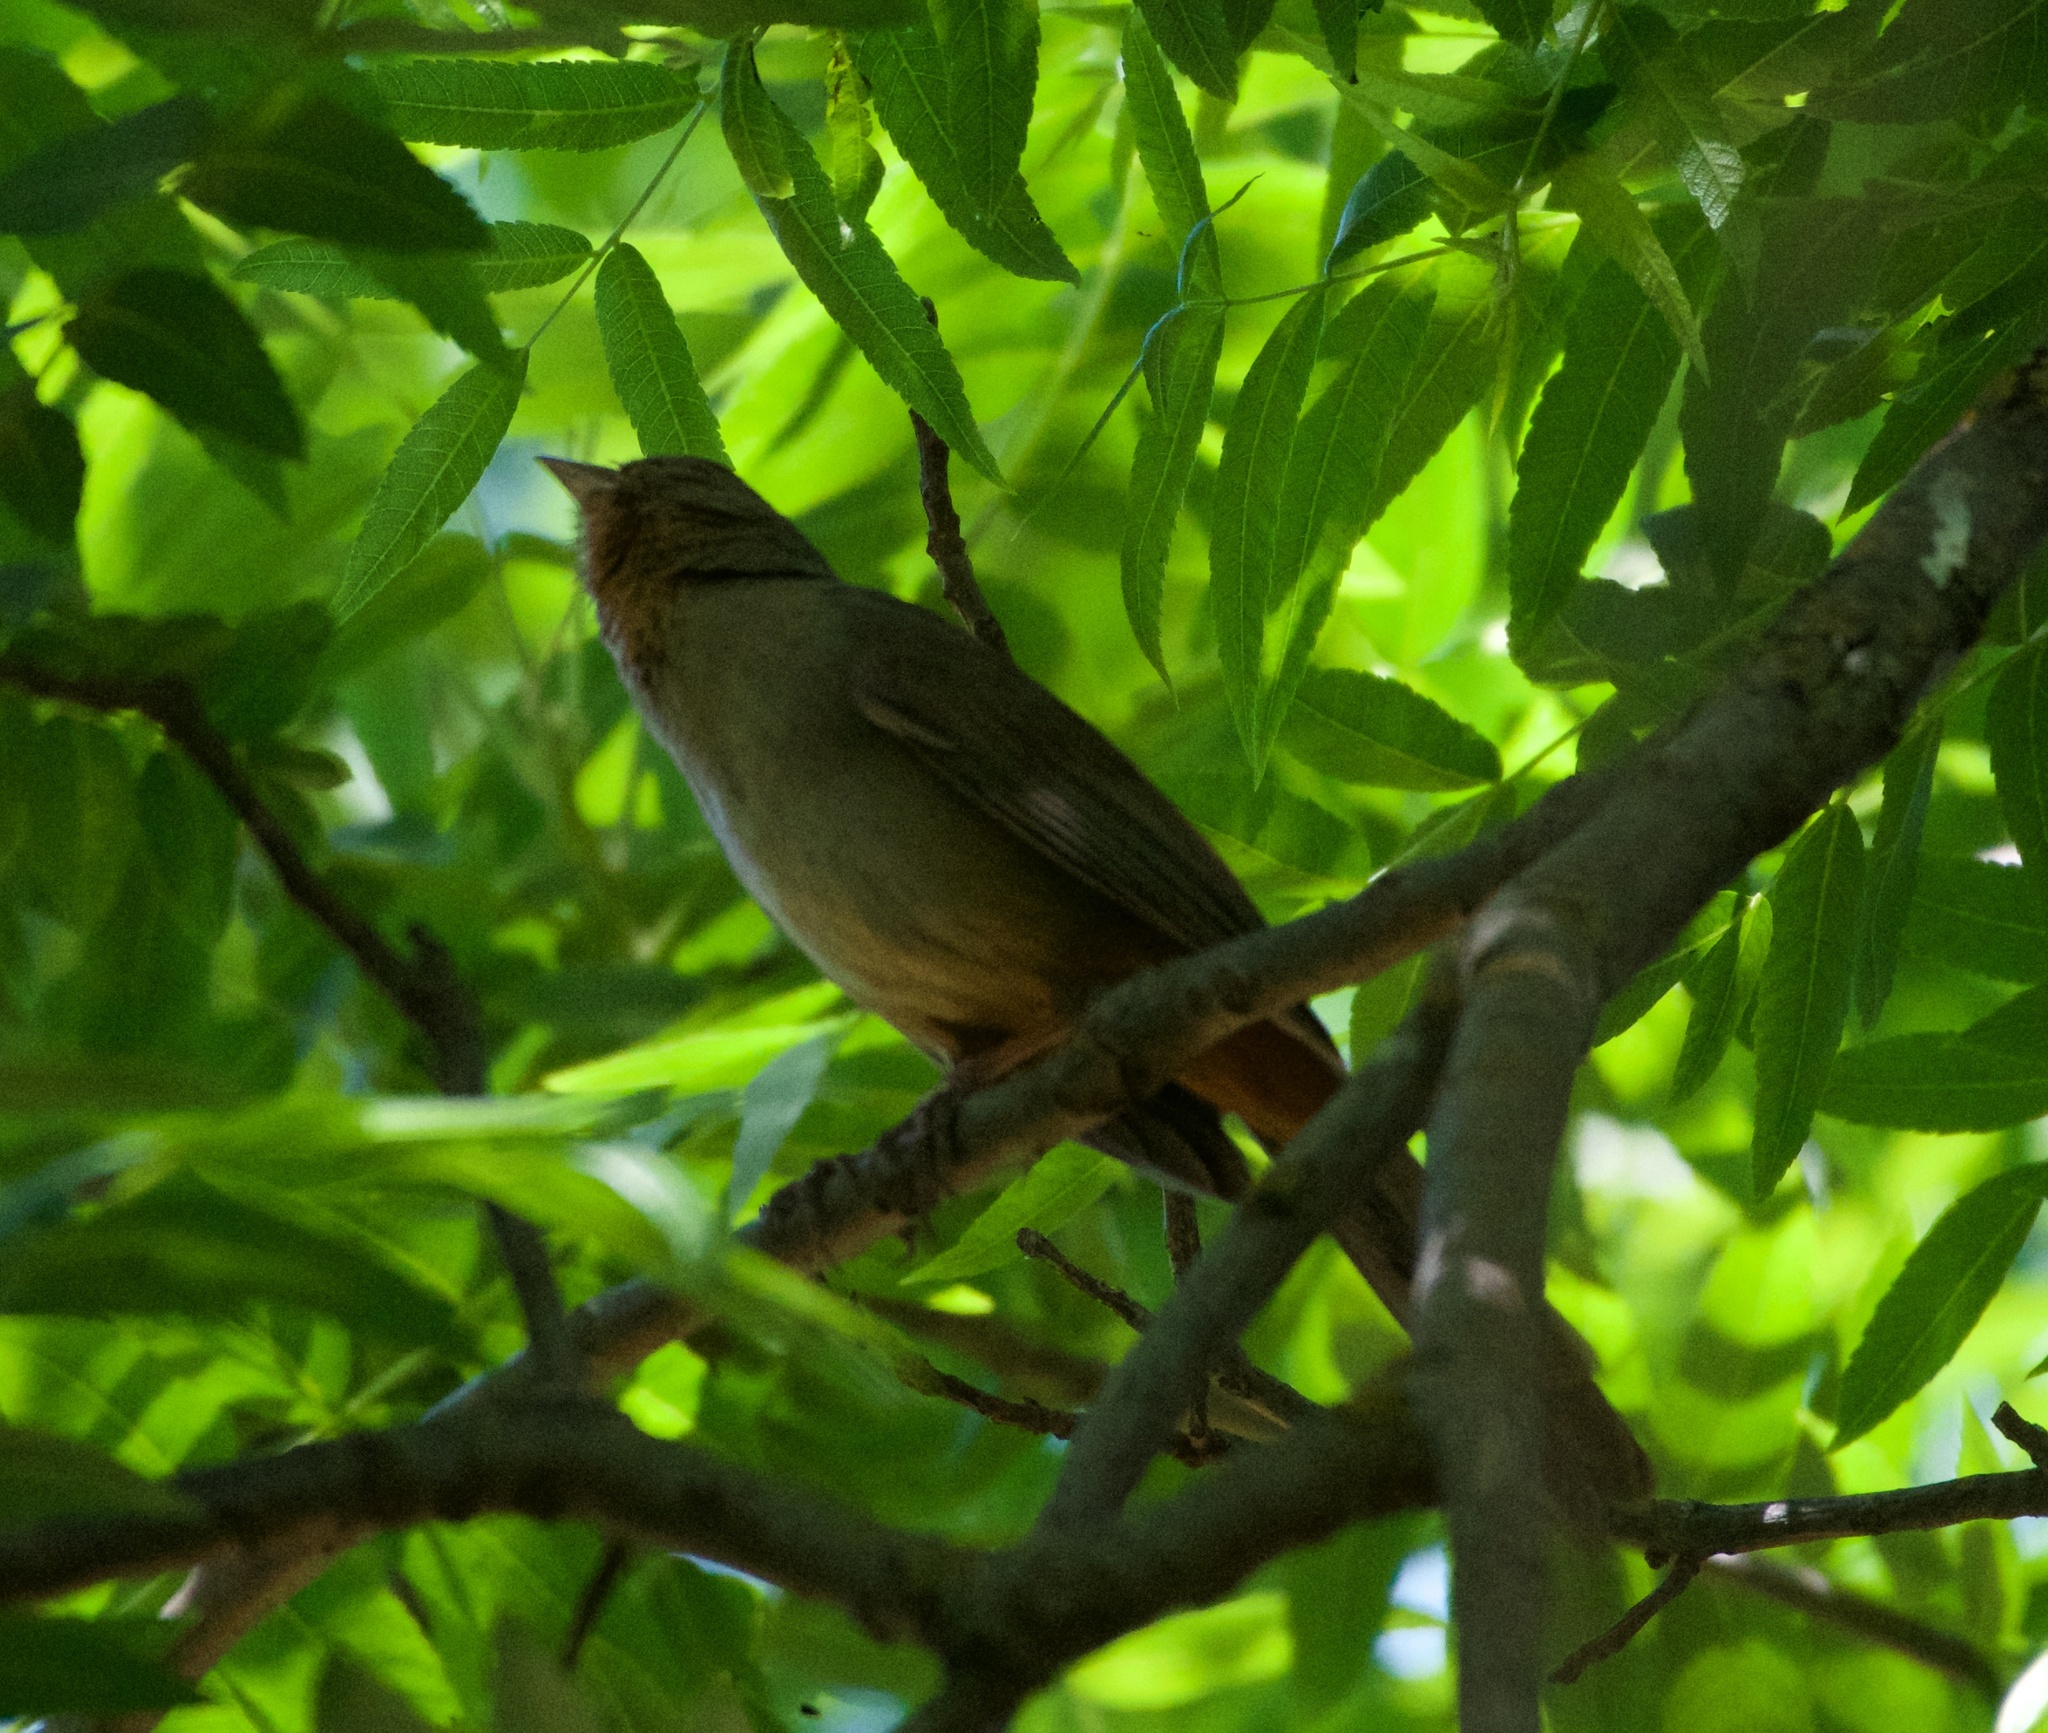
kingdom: Animalia
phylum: Chordata
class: Aves
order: Passeriformes
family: Passerellidae
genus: Melozone
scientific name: Melozone crissalis
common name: California towhee
